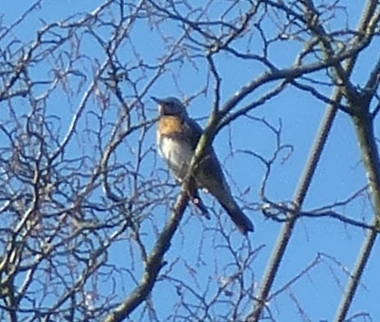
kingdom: Animalia
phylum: Chordata
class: Aves
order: Passeriformes
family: Turdidae
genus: Turdus
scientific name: Turdus pilaris
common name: Fieldfare
